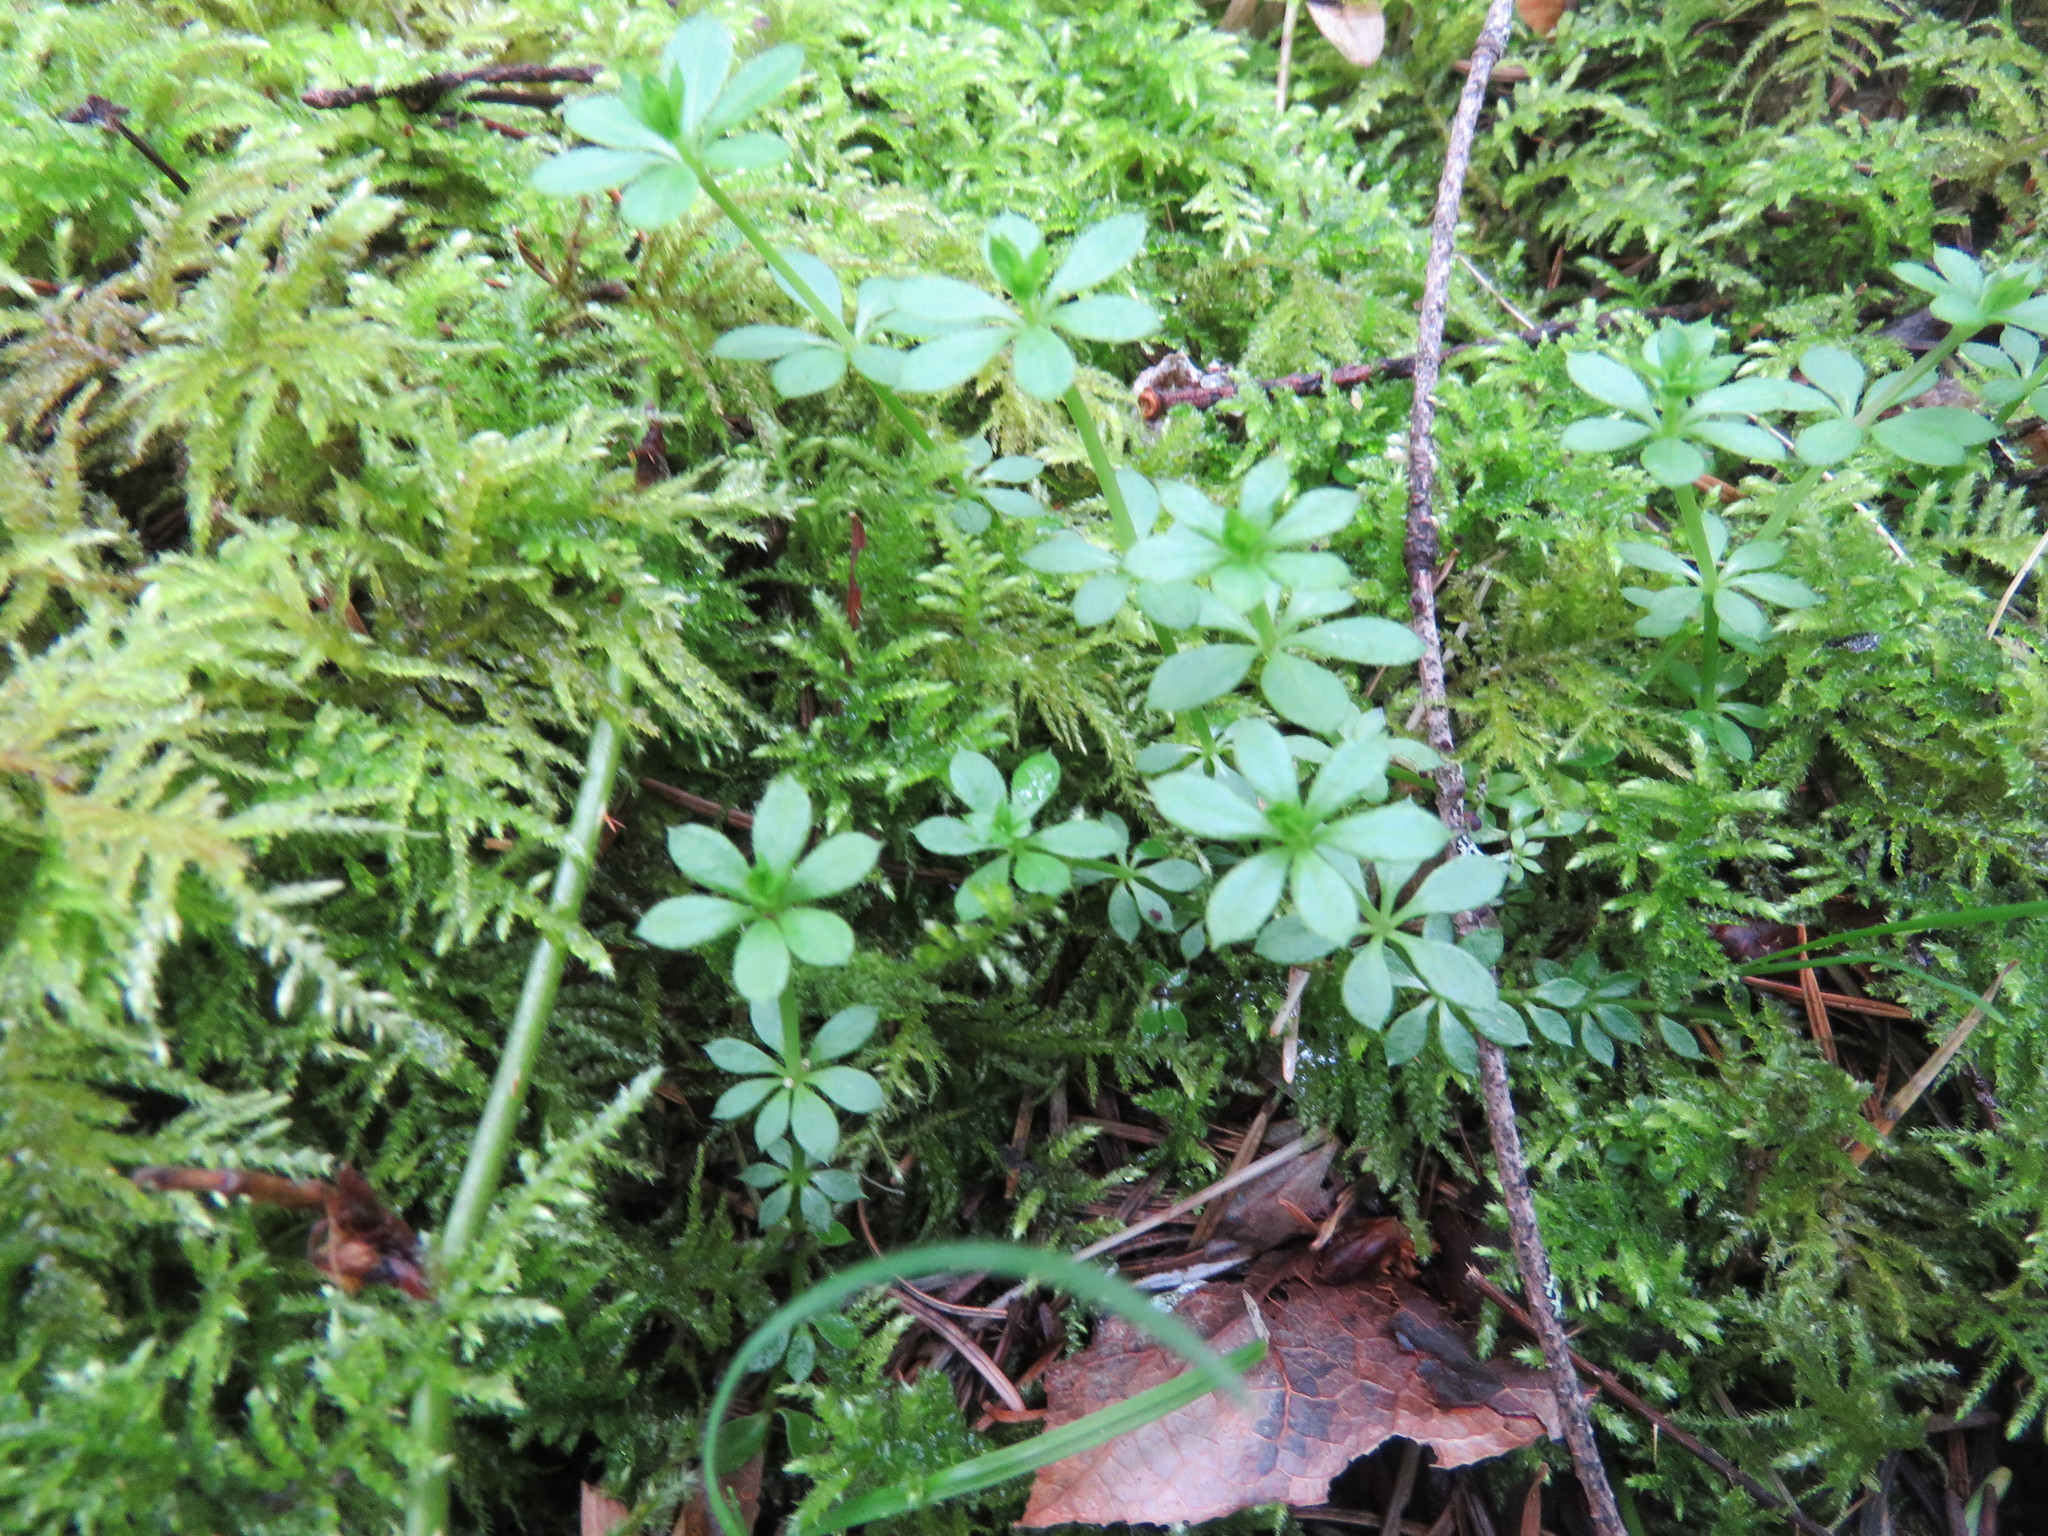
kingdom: Plantae
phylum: Tracheophyta
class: Magnoliopsida
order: Gentianales
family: Rubiaceae
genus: Galium
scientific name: Galium triflorum
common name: Fragrant bedstraw
